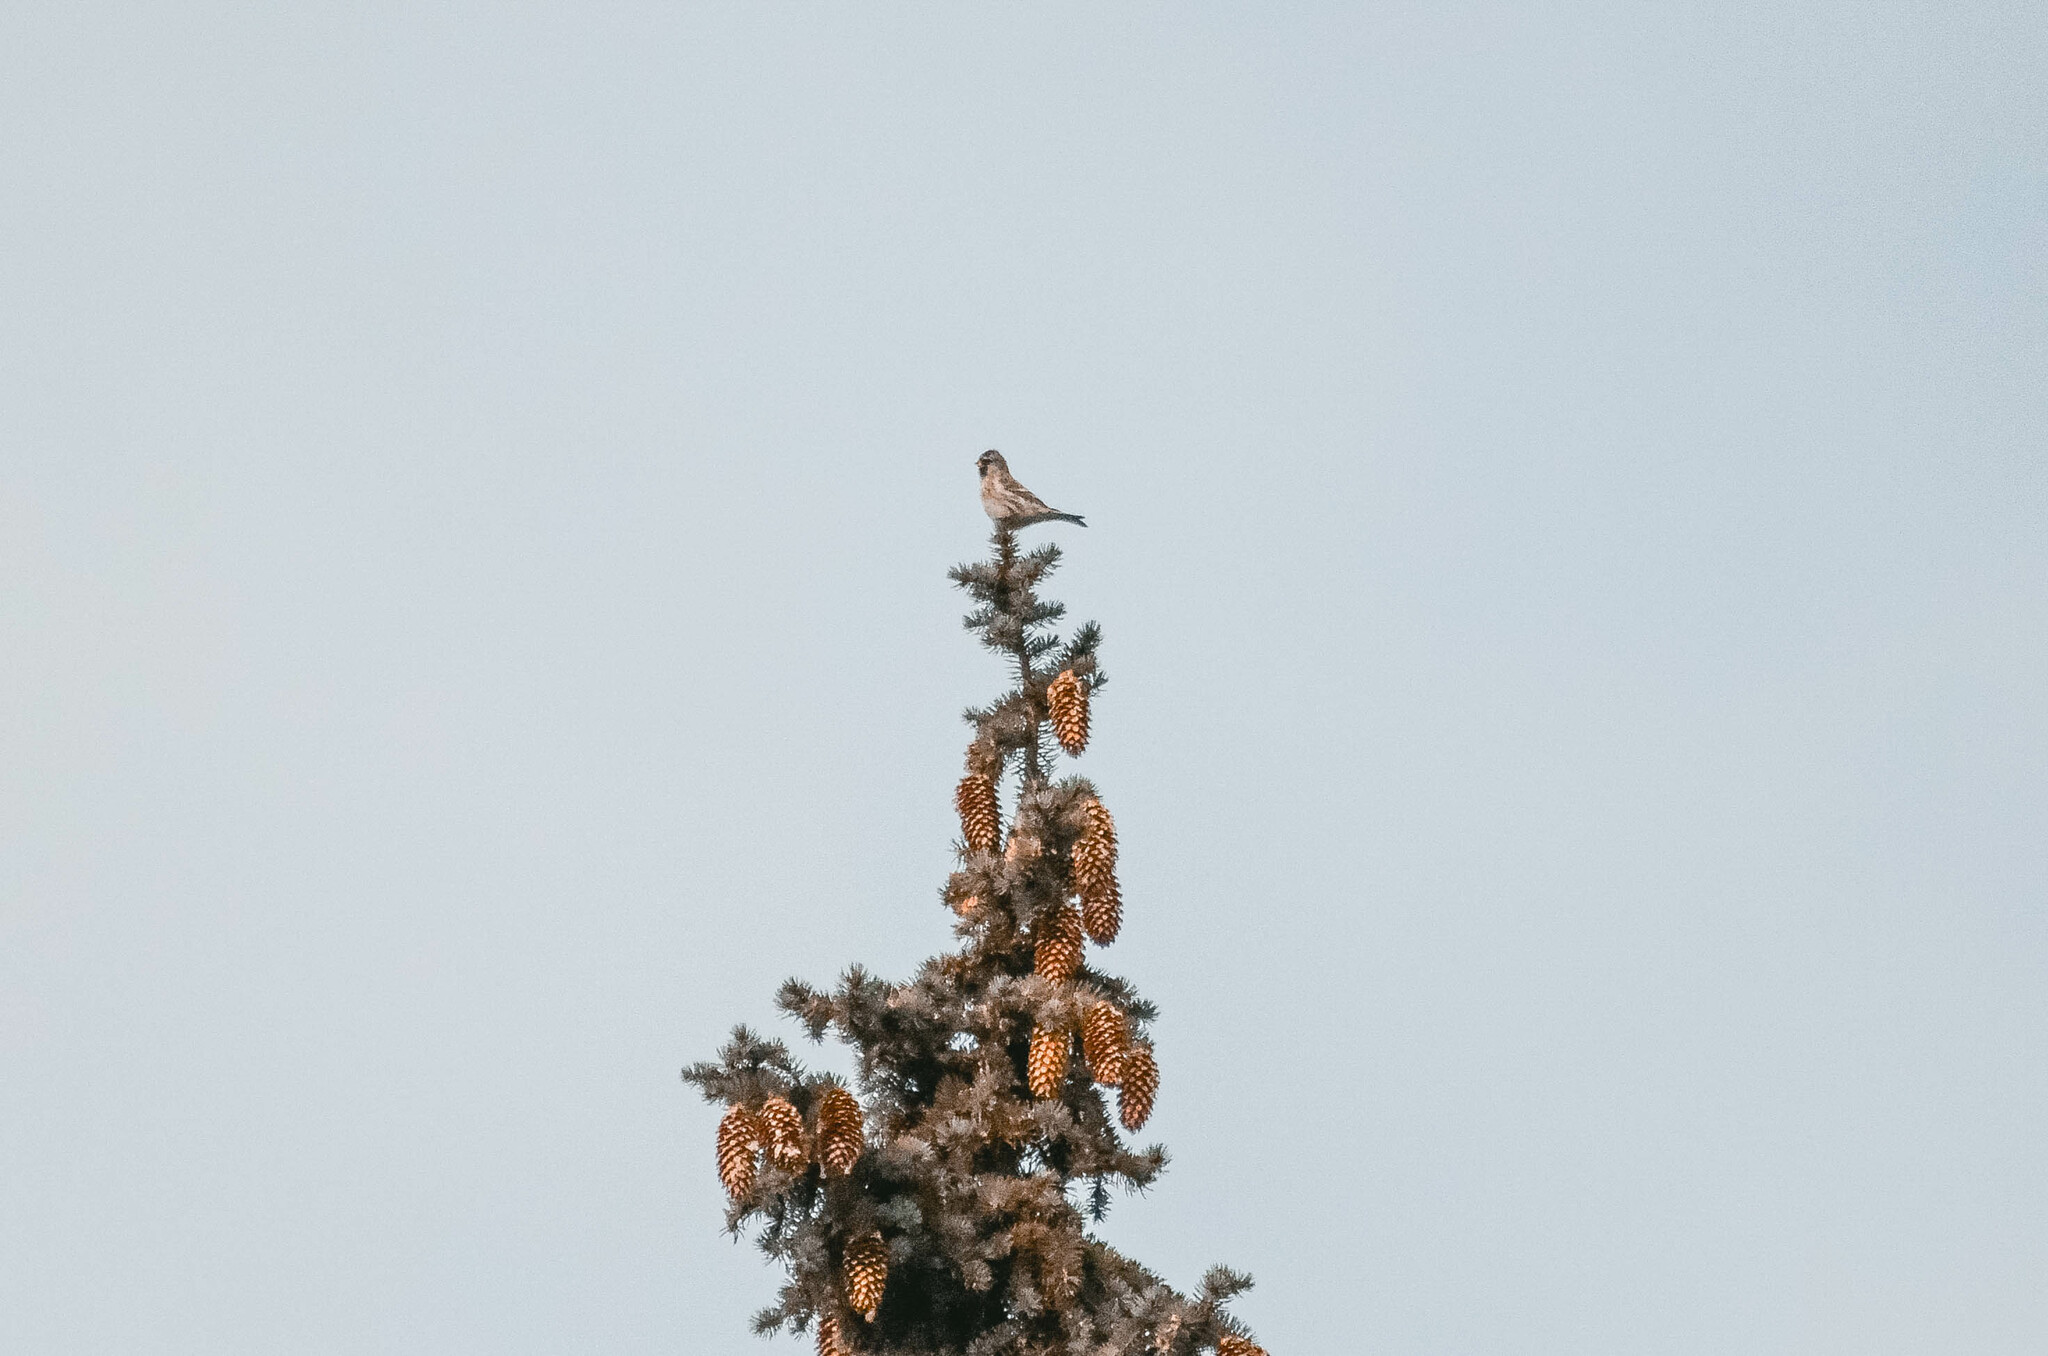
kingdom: Animalia
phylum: Chordata
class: Aves
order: Passeriformes
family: Fringillidae
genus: Acanthis
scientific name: Acanthis flammea
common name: Common redpoll
